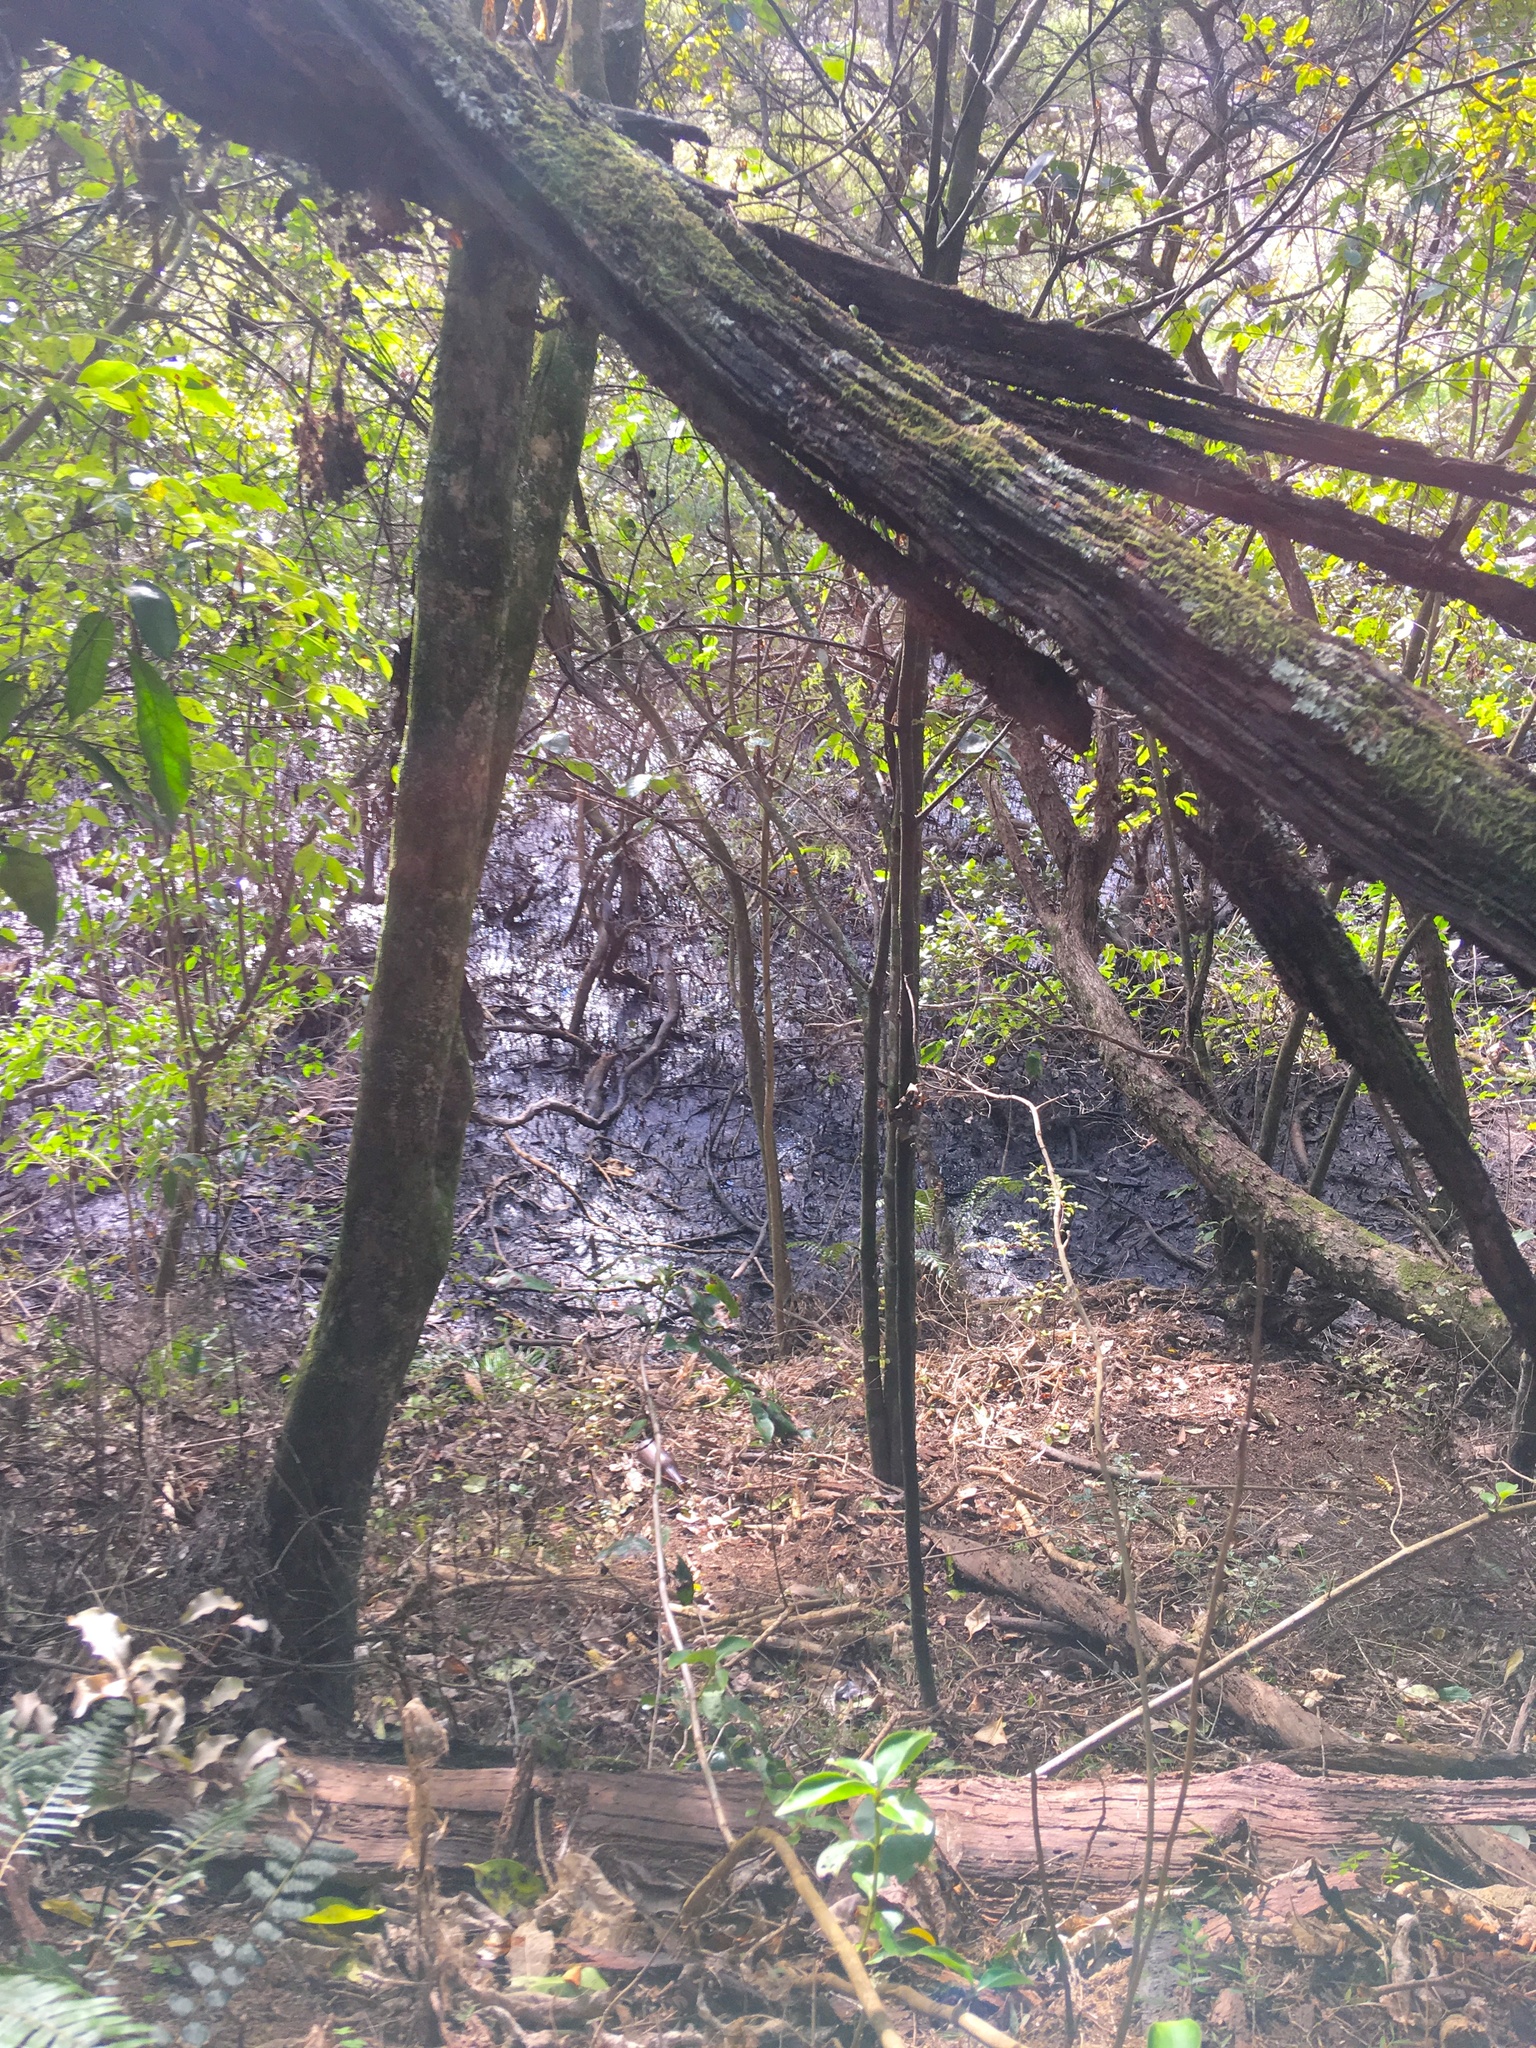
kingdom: Plantae
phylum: Tracheophyta
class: Magnoliopsida
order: Malpighiales
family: Violaceae
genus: Melicytus
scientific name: Melicytus ramiflorus
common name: Mahoe
